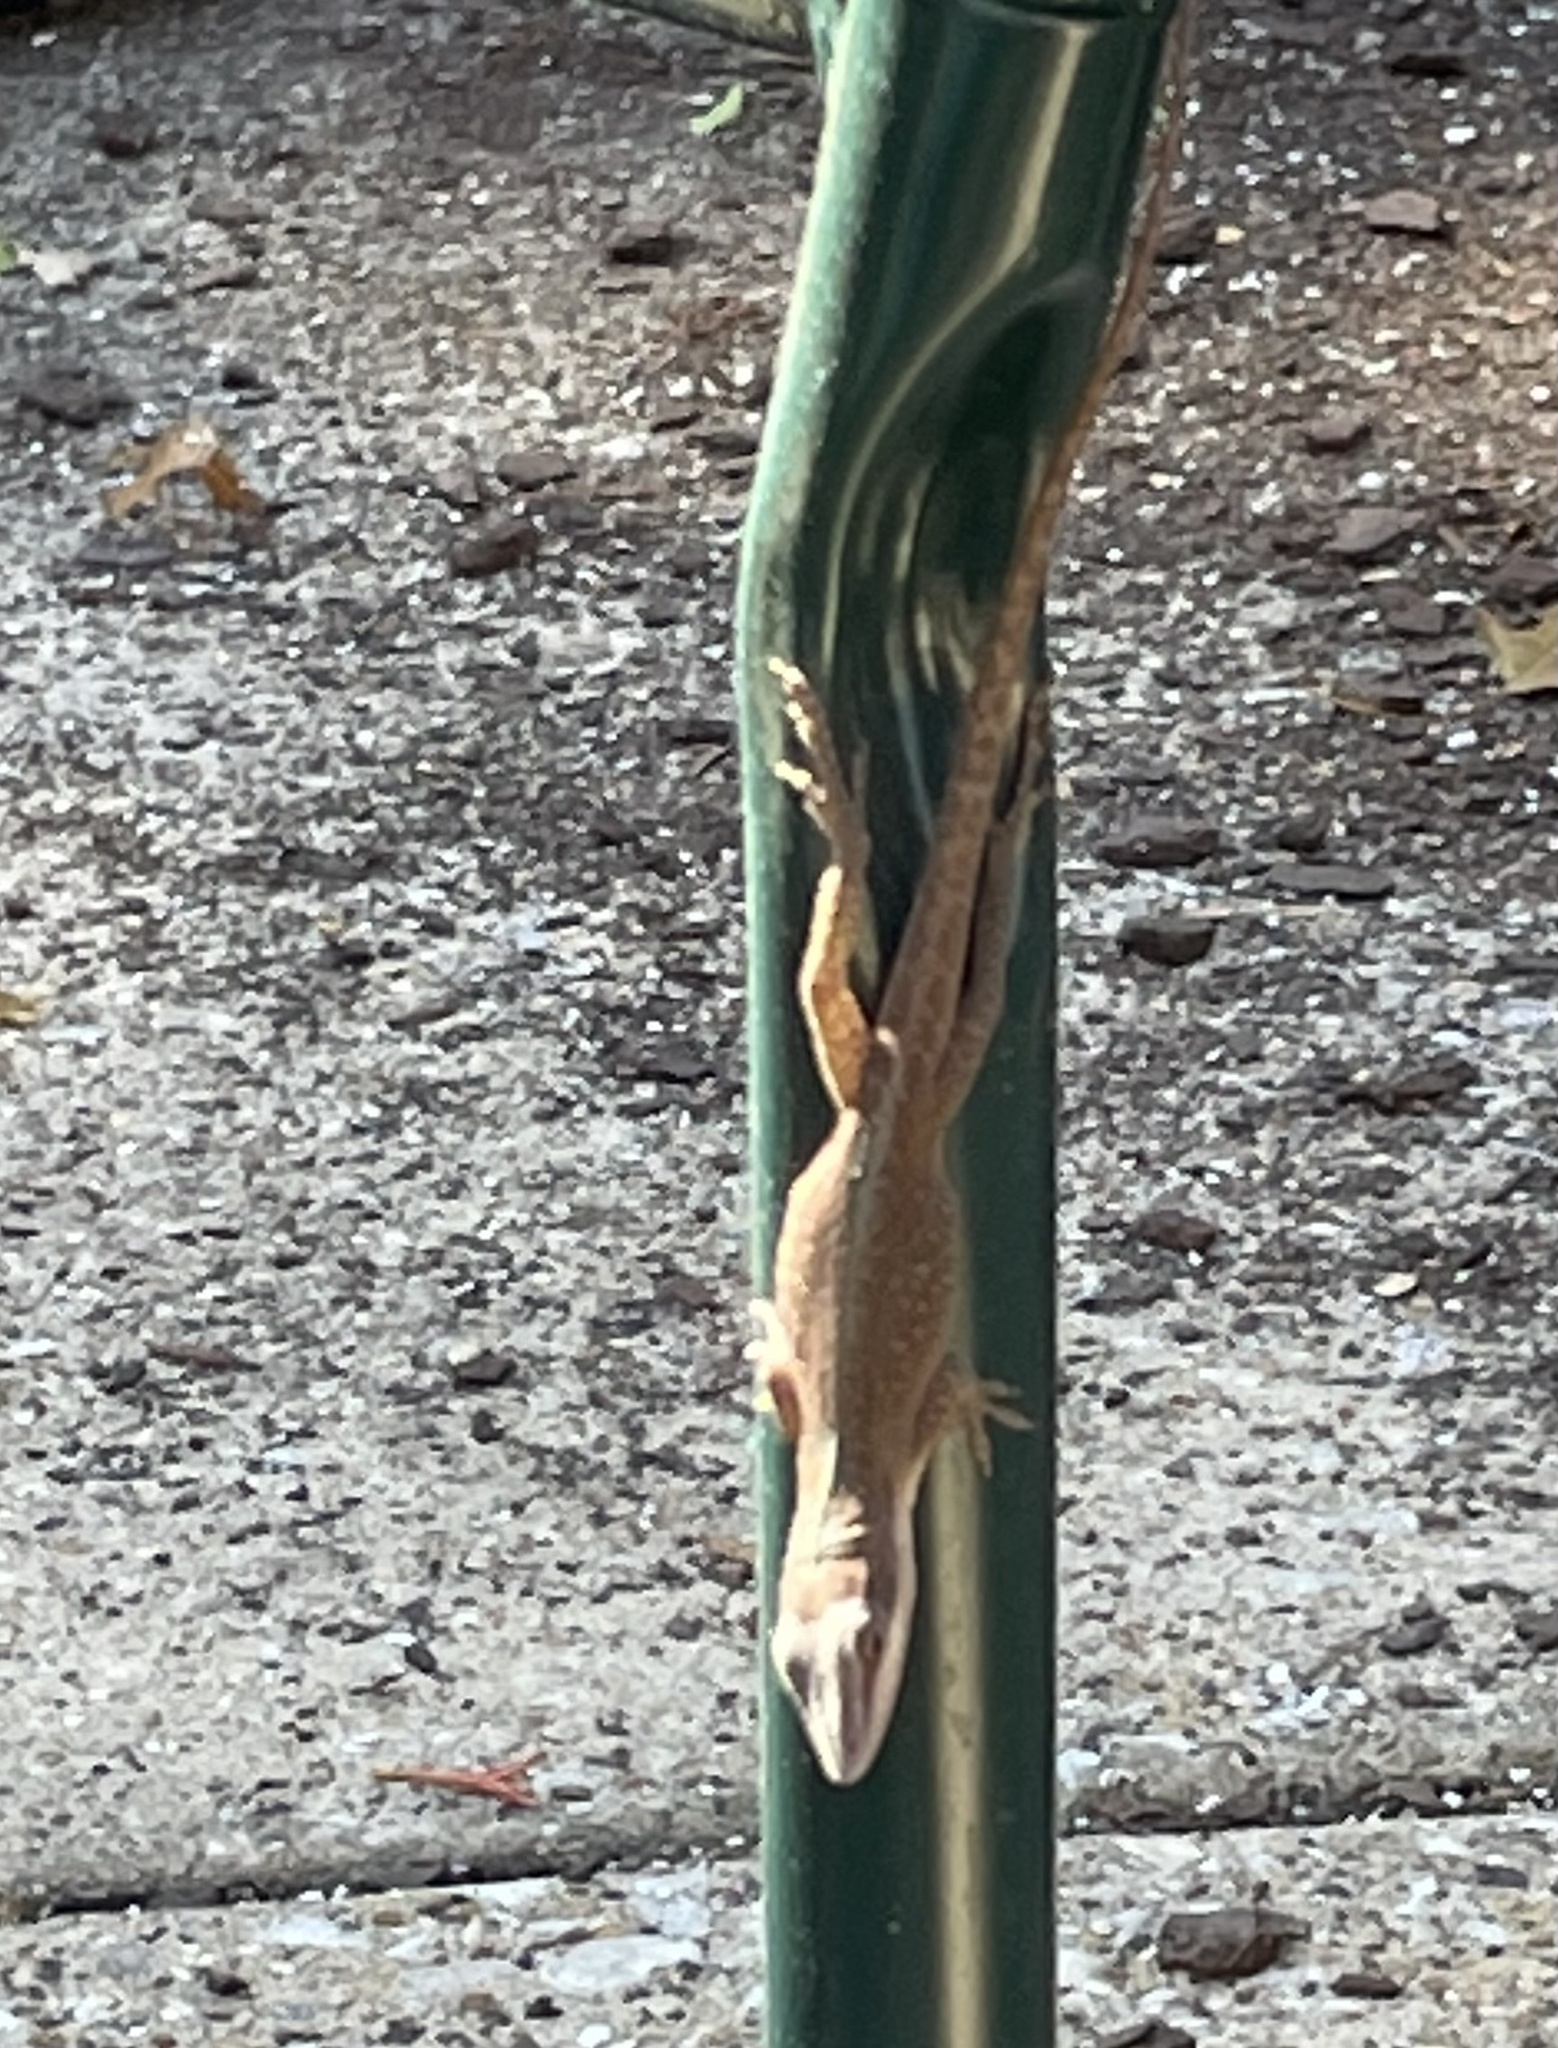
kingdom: Animalia
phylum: Chordata
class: Squamata
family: Dactyloidae
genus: Anolis
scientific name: Anolis carolinensis
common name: Green anole
